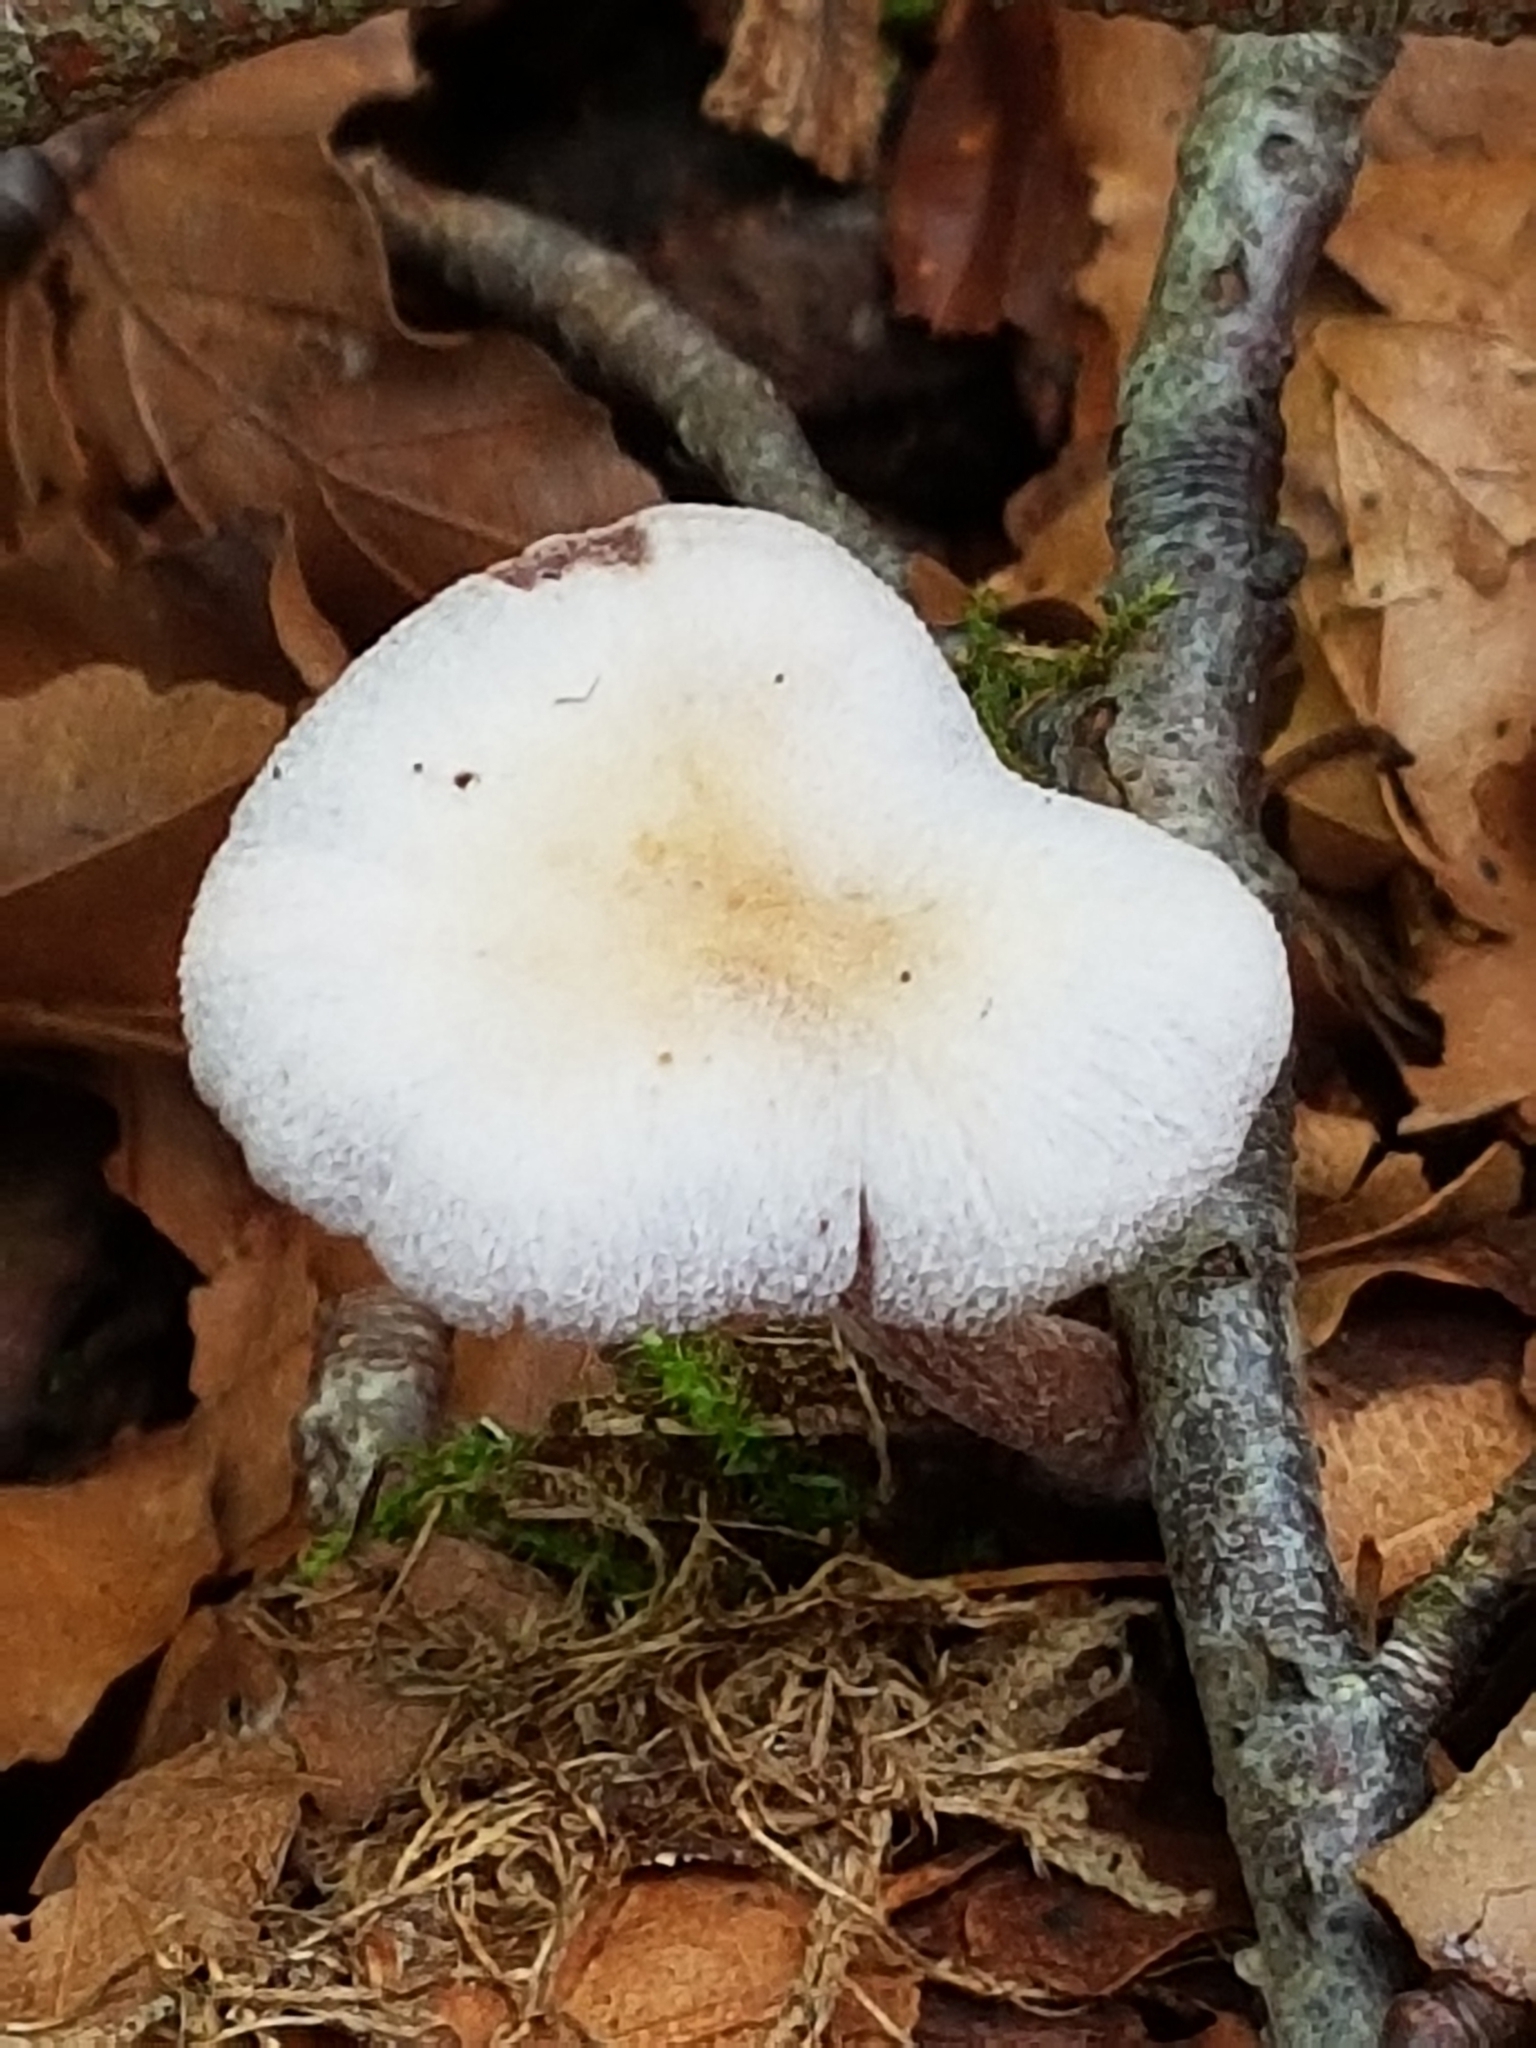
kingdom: Fungi
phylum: Basidiomycota
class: Agaricomycetes
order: Agaricales
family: Hydnangiaceae
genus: Laccaria
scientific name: Laccaria amethystina
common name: Amethyst deceiver
